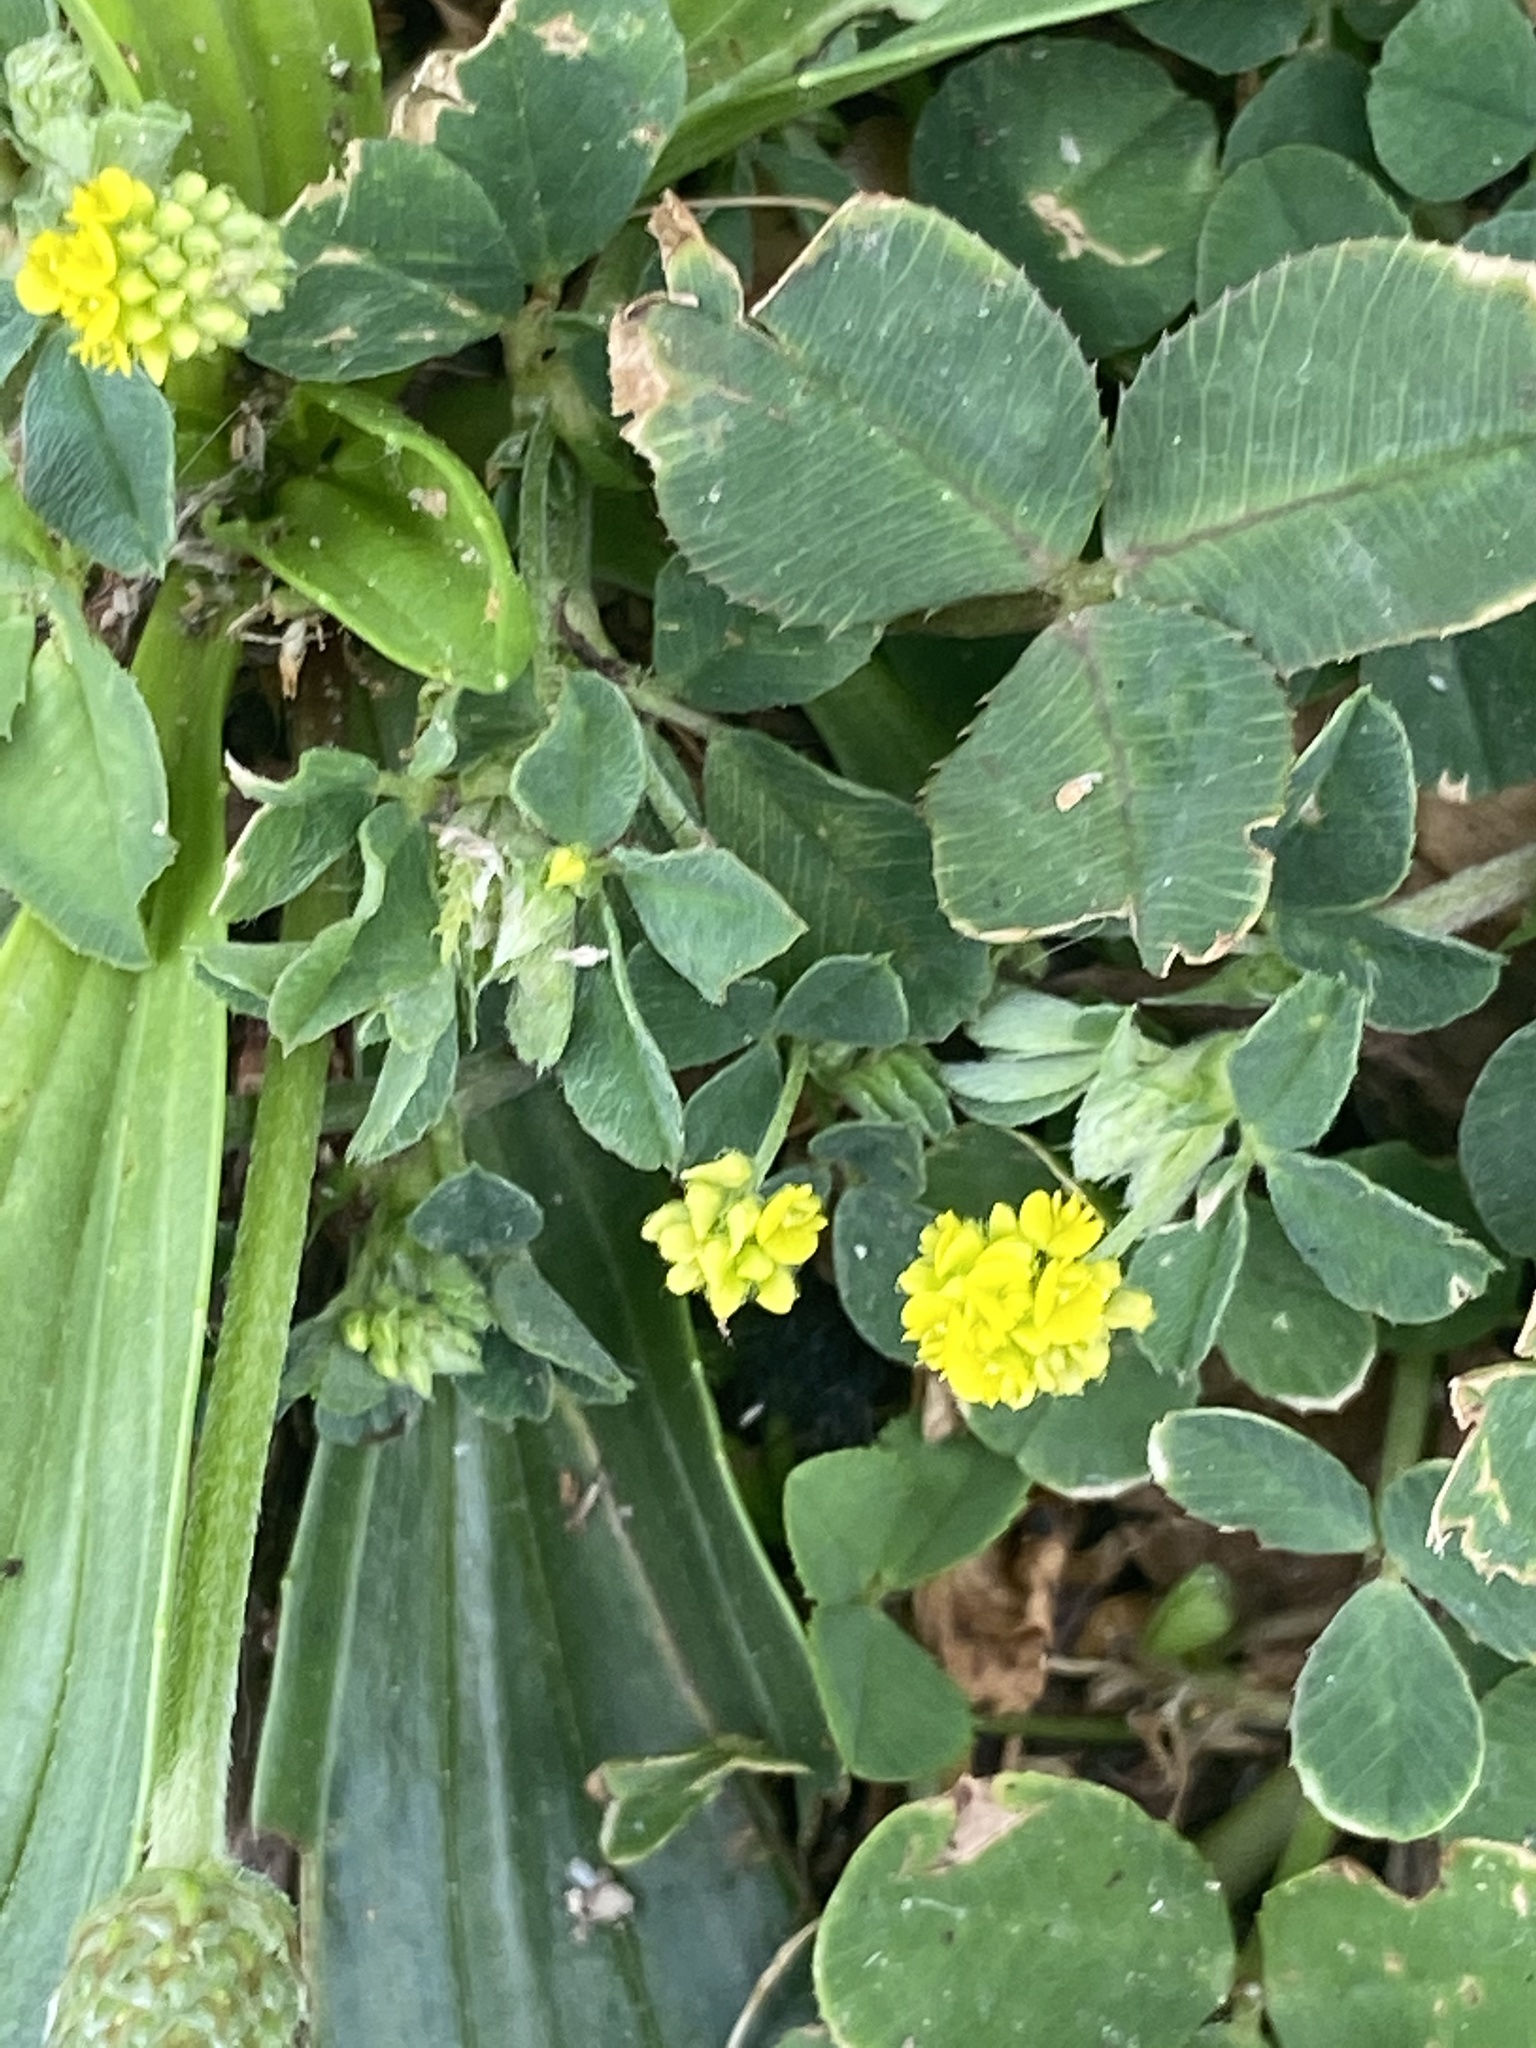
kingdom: Plantae
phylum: Tracheophyta
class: Magnoliopsida
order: Fabales
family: Fabaceae
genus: Medicago
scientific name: Medicago lupulina
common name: Black medick
